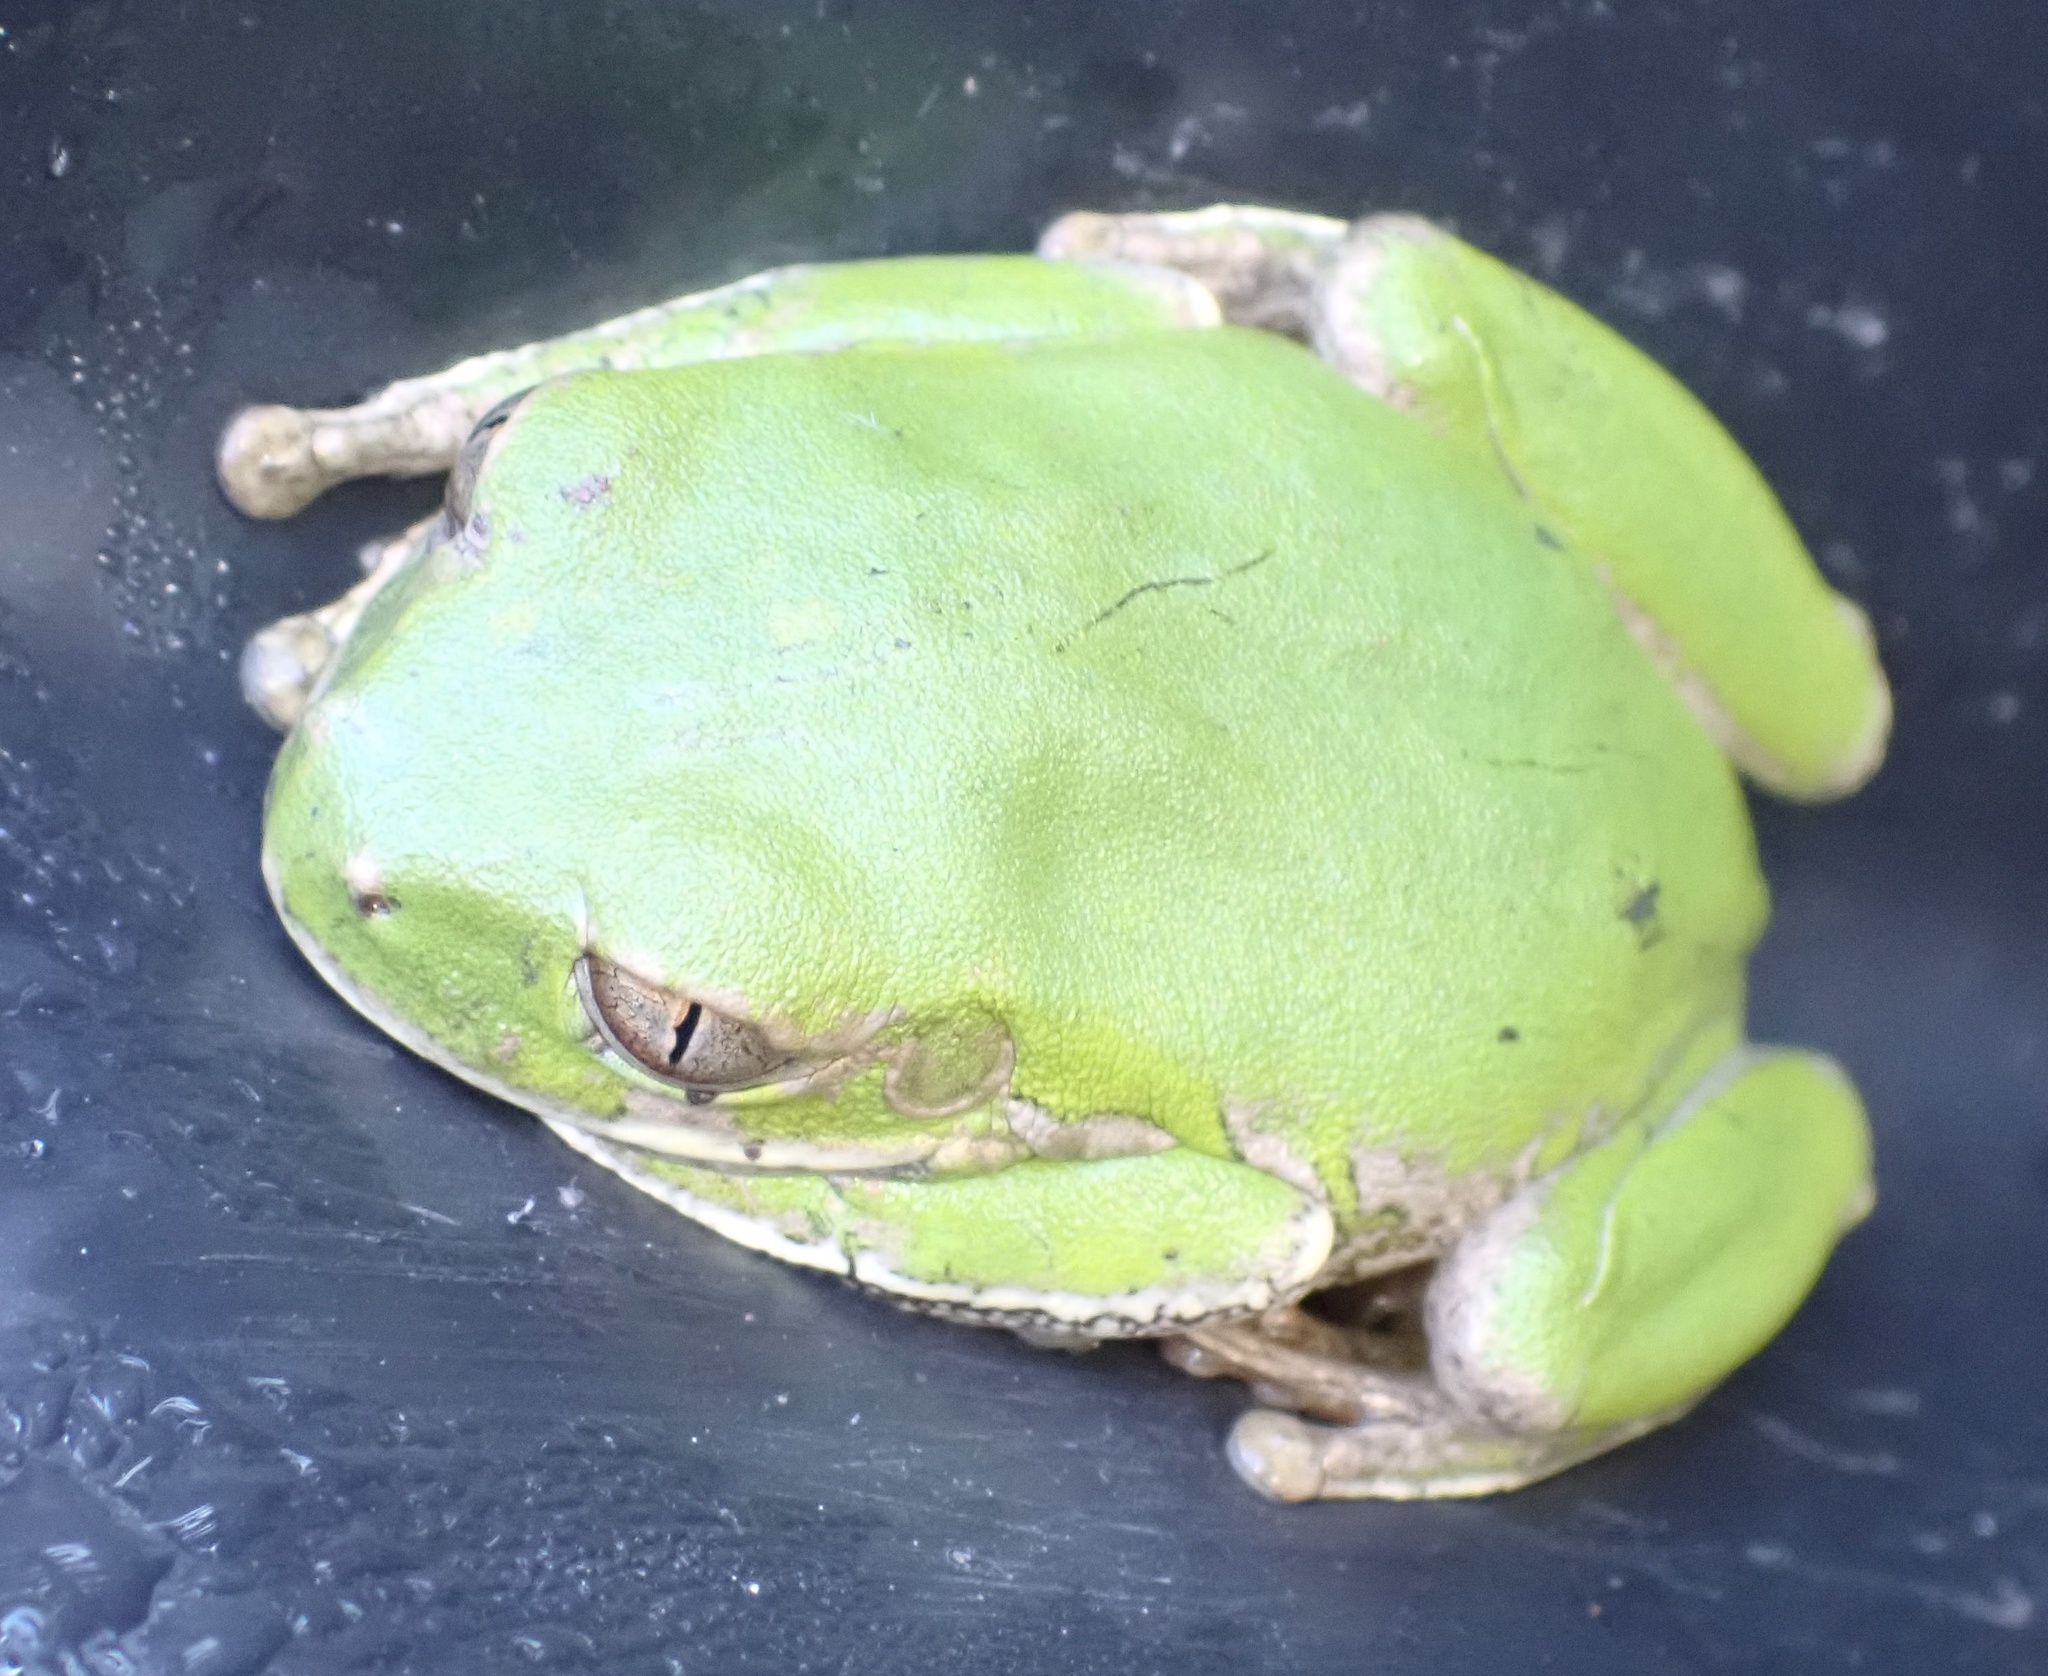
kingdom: Animalia
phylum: Chordata
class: Amphibia
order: Anura
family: Arthroleptidae
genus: Leptopelis
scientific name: Leptopelis natalensis
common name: Natal tree frog
